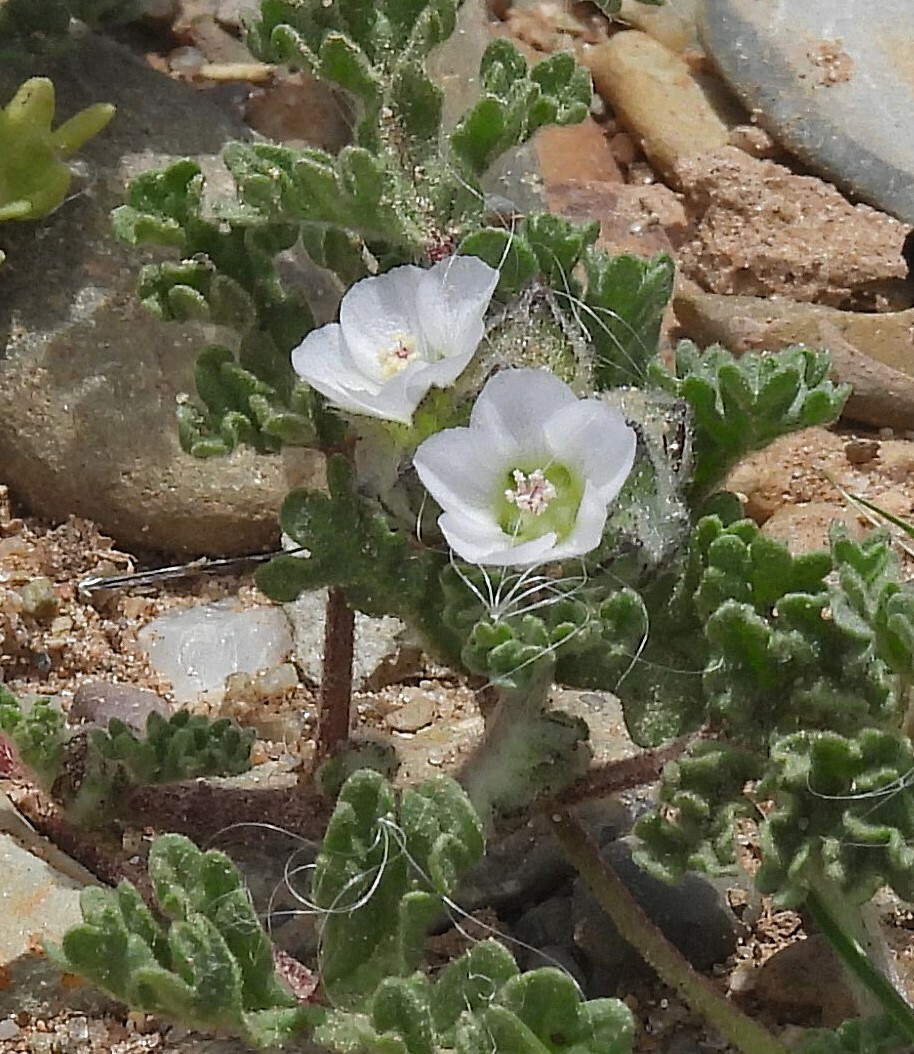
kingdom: Plantae
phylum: Tracheophyta
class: Magnoliopsida
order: Malvales
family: Malvaceae
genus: Tarasa
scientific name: Tarasa tenella
